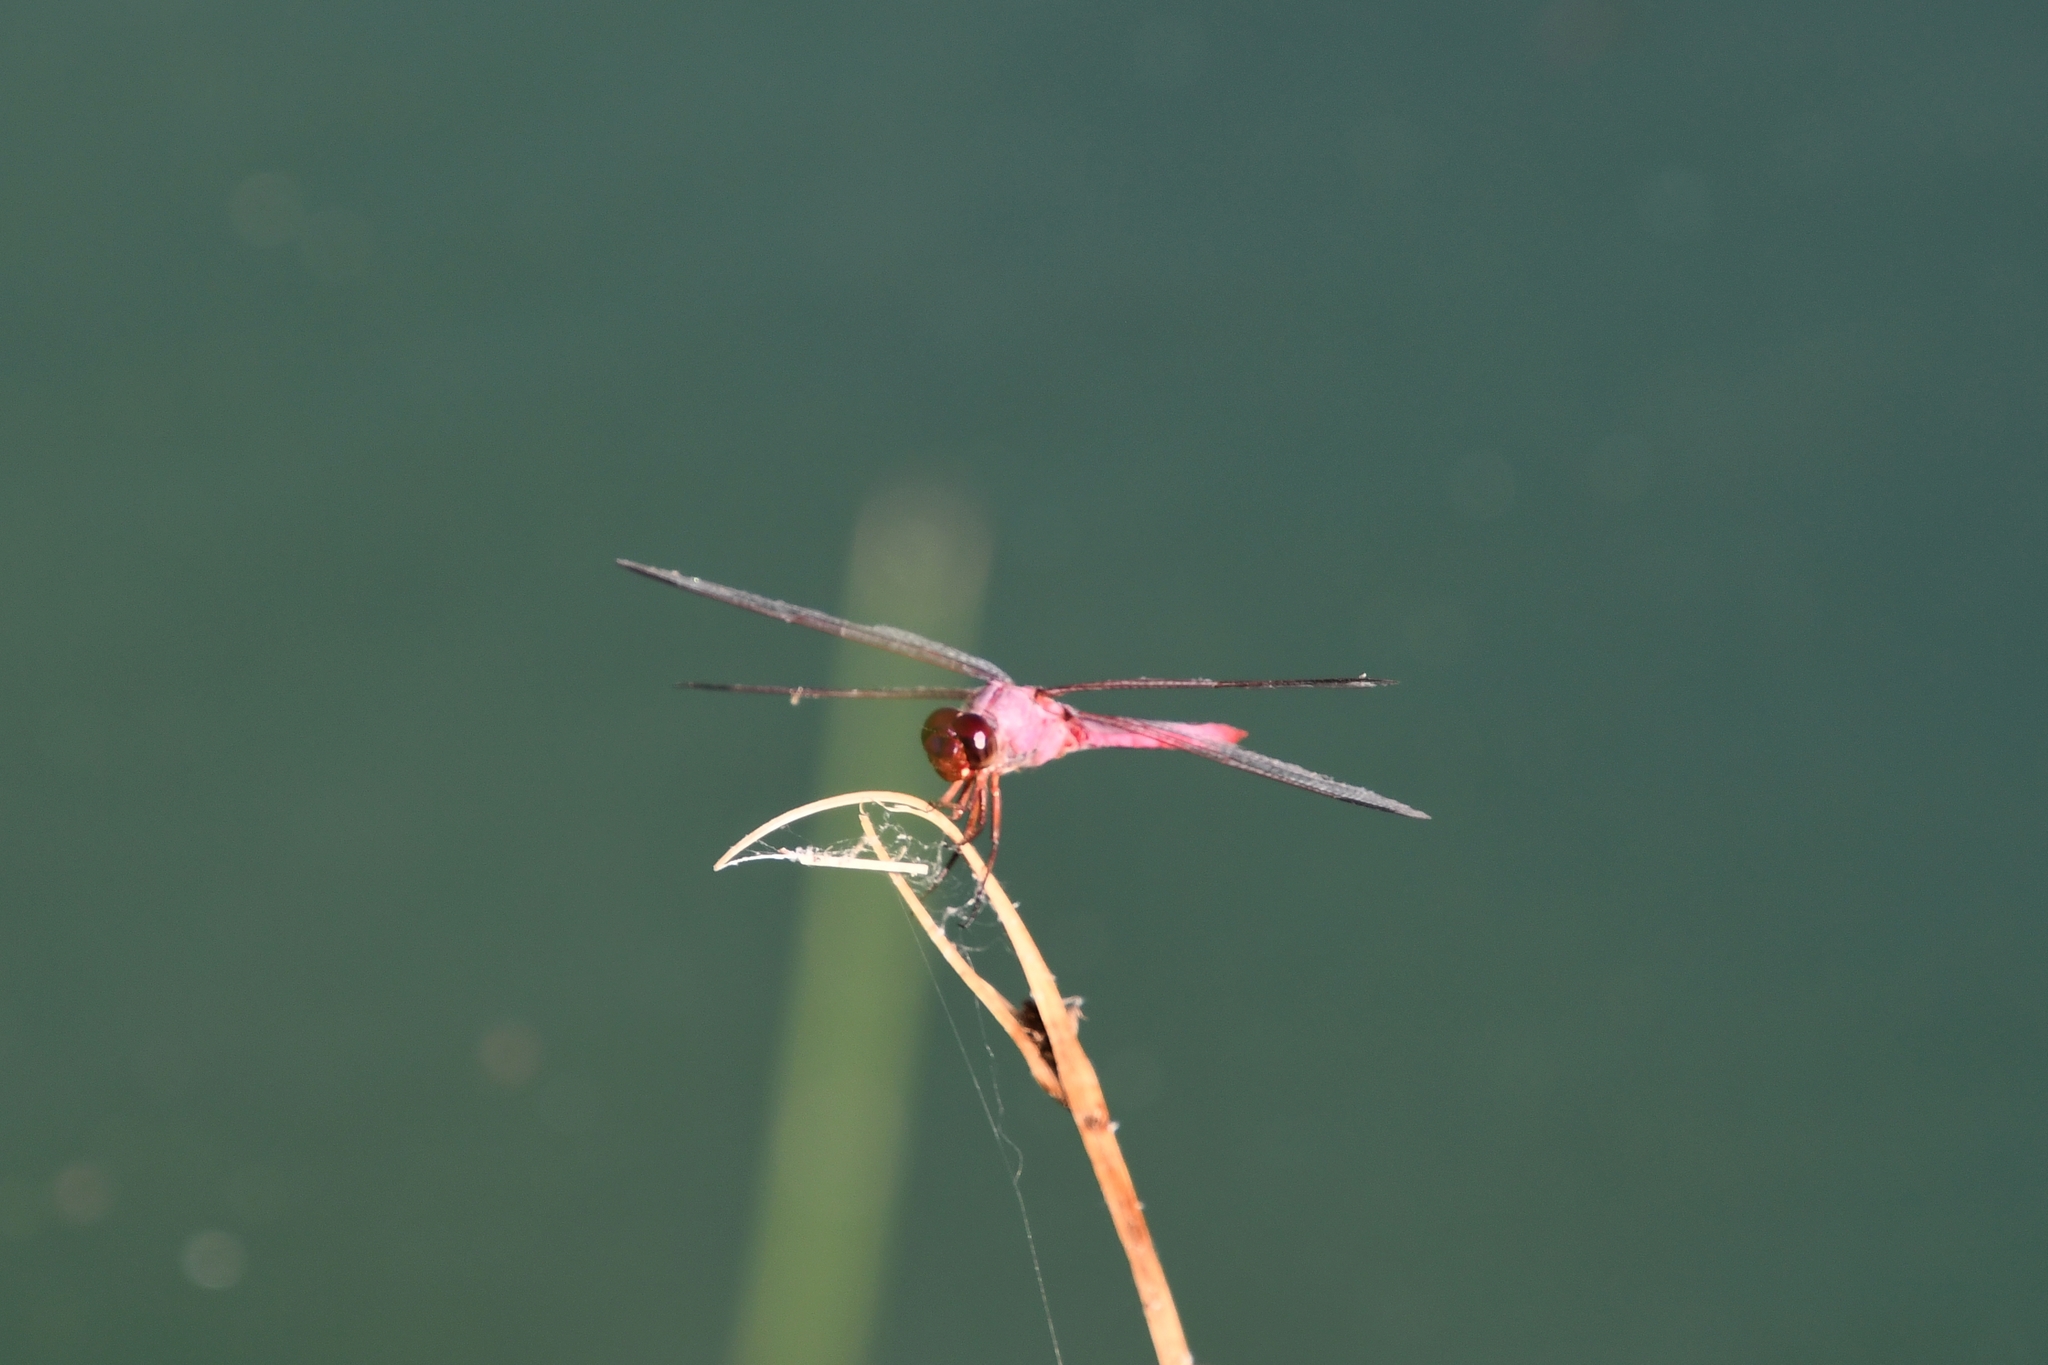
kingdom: Animalia
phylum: Arthropoda
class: Insecta
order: Odonata
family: Libellulidae
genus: Orthemis
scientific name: Orthemis ferruginea
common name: Roseate skimmer
